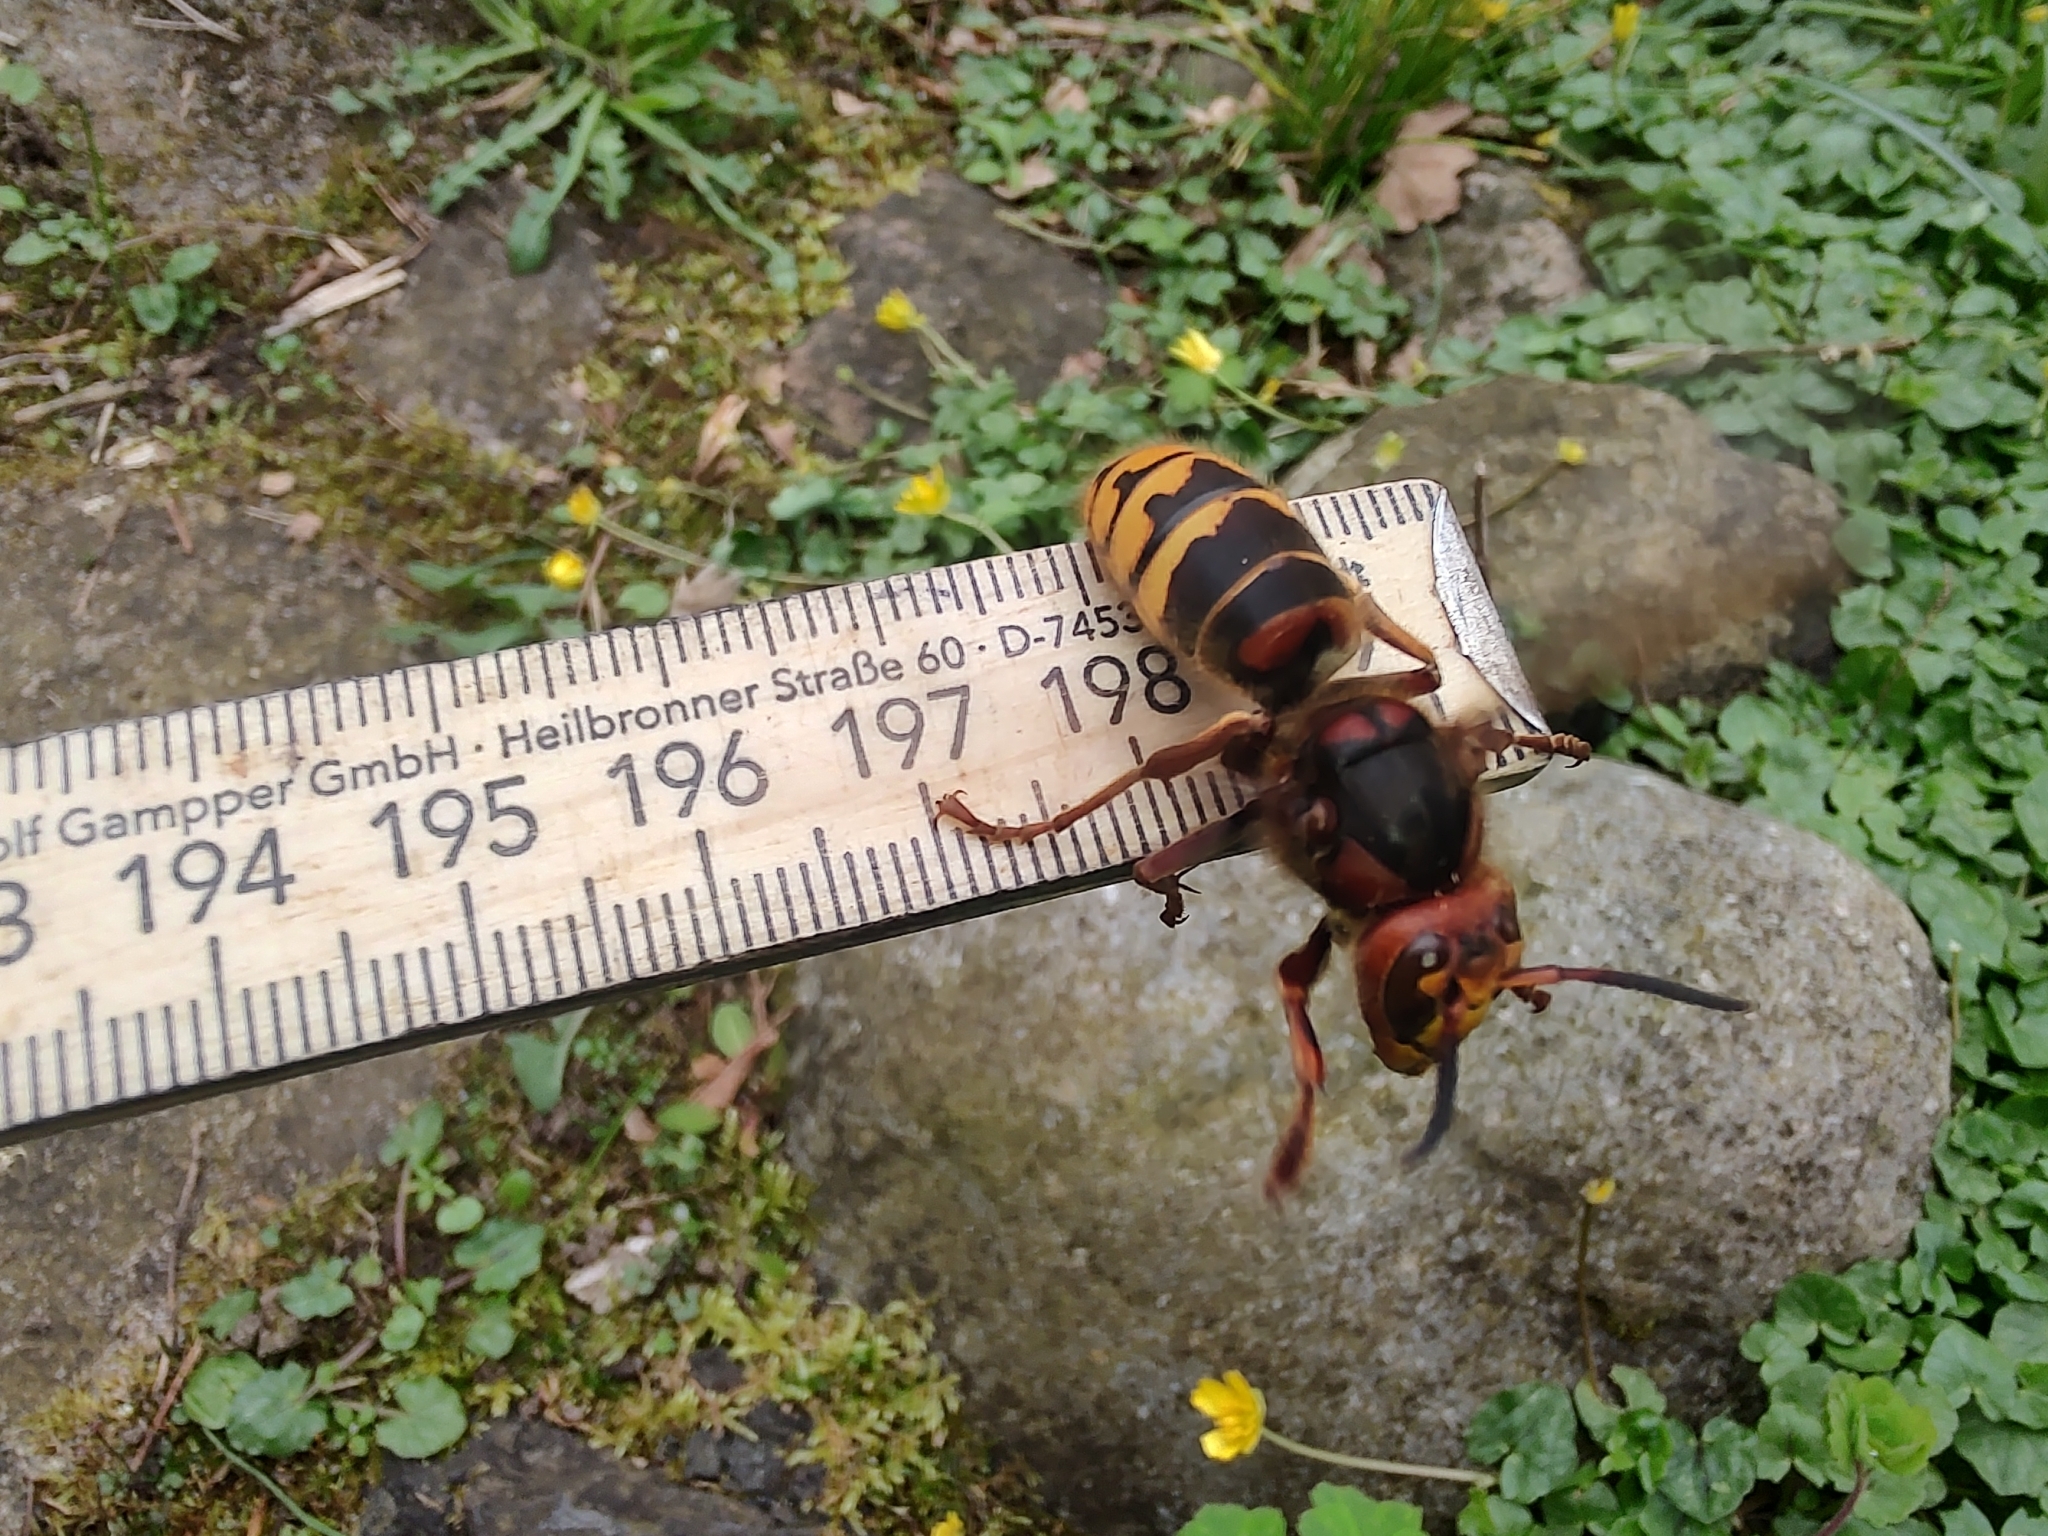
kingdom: Animalia
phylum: Arthropoda
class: Insecta
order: Hymenoptera
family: Vespidae
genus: Vespa
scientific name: Vespa crabro
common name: Hornet
